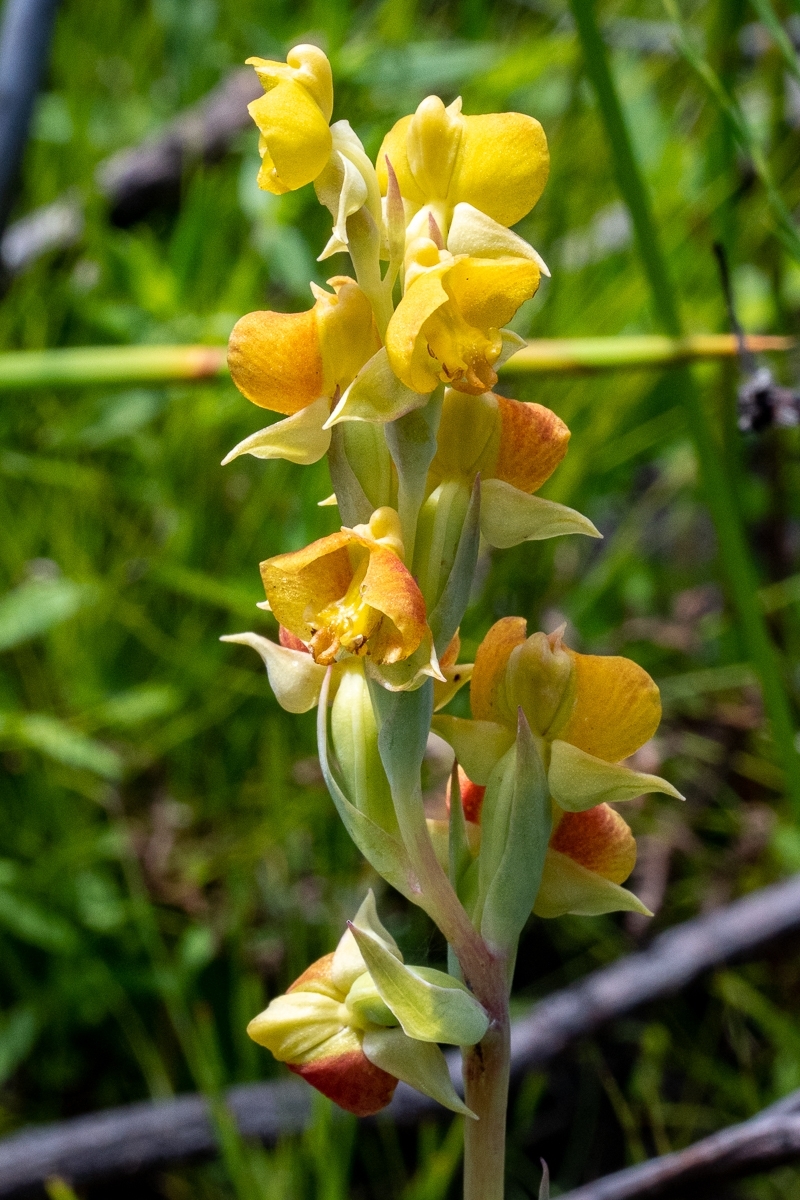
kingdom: Plantae
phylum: Tracheophyta
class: Liliopsida
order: Asparagales
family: Orchidaceae
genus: Pterygodium
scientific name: Pterygodium acutifolium
